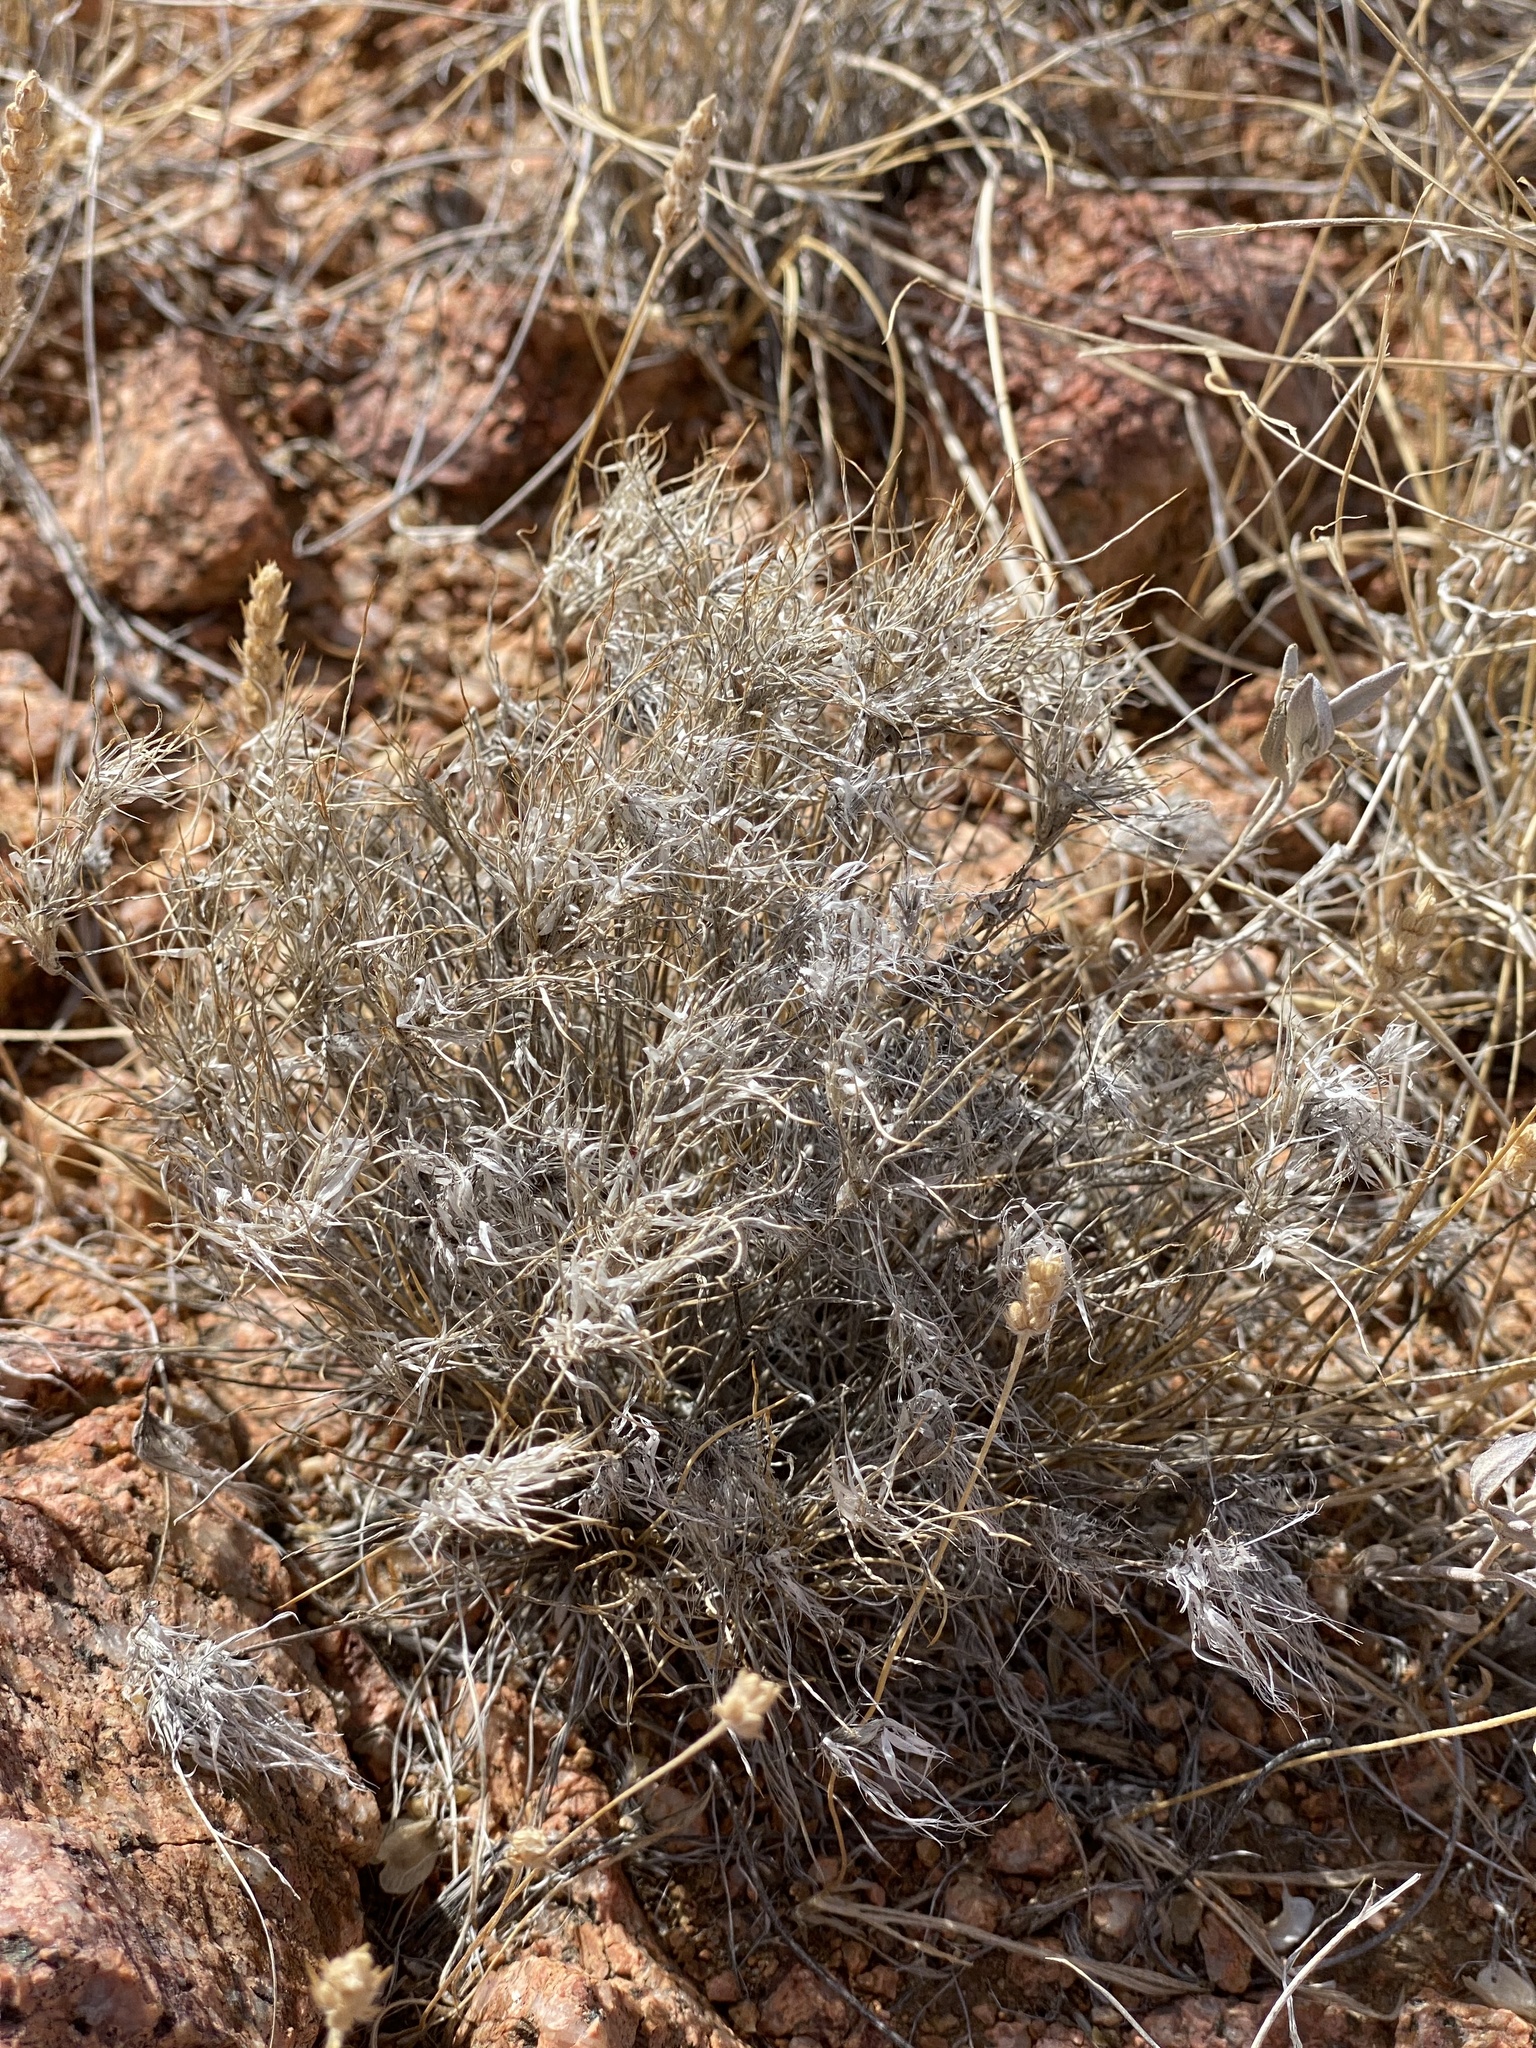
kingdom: Plantae
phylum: Tracheophyta
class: Liliopsida
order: Poales
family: Poaceae
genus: Dasyochloa
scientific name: Dasyochloa pulchella
